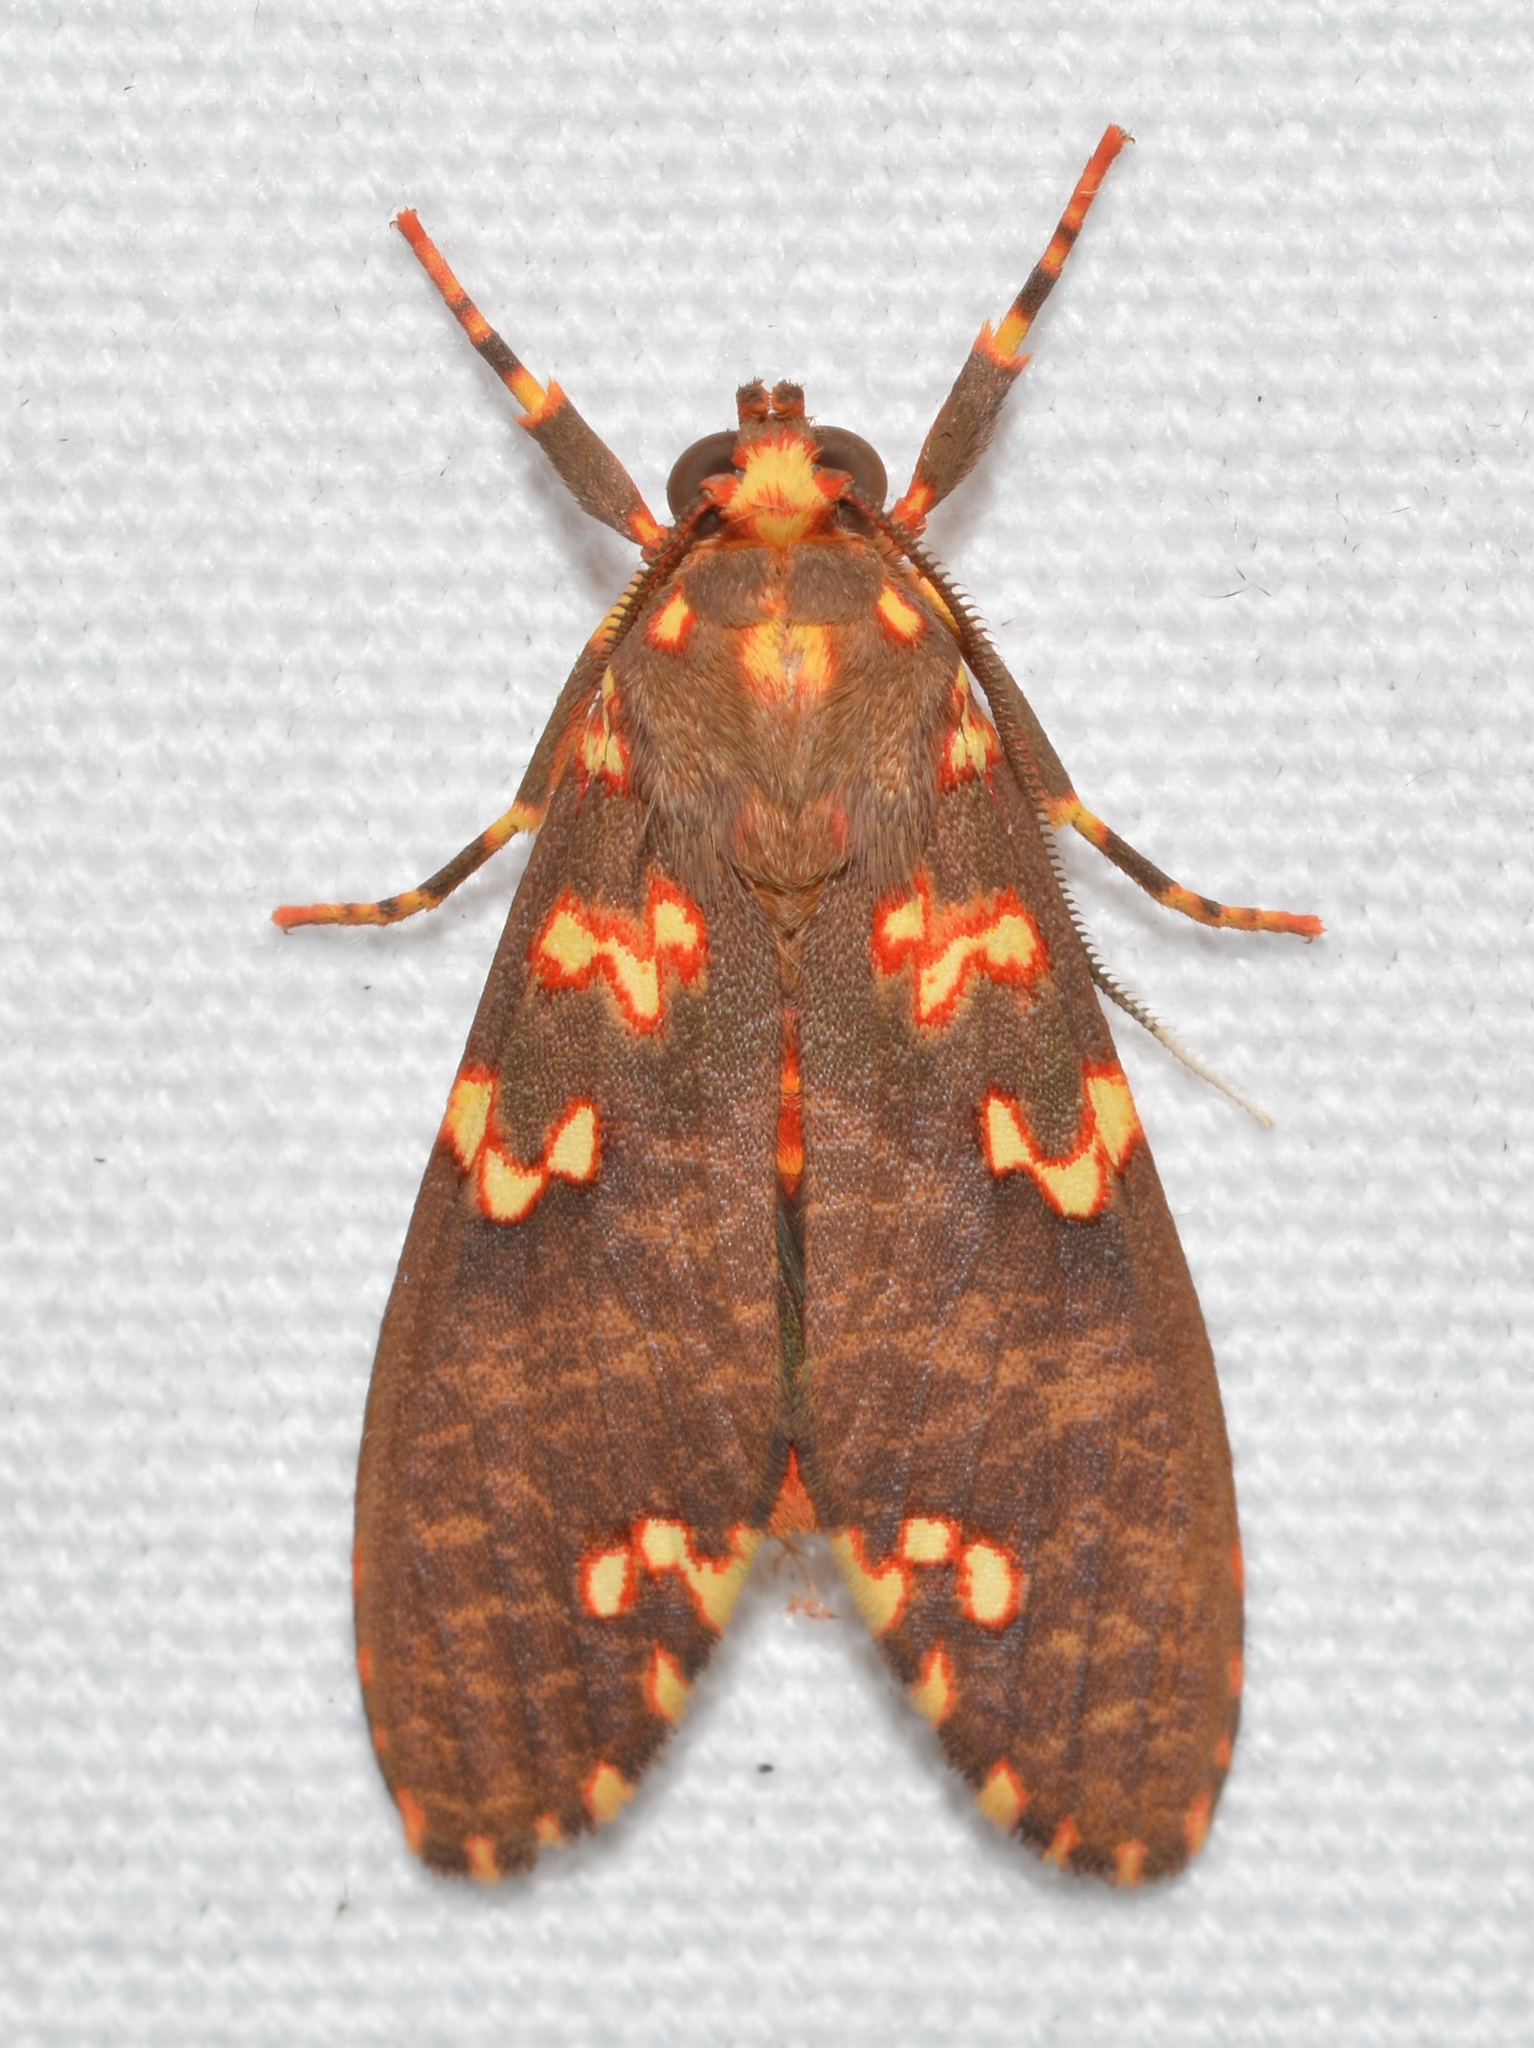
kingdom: Animalia
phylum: Arthropoda
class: Insecta
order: Lepidoptera
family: Erebidae
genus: Coiffaitarctia
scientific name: Coiffaitarctia steniptera
